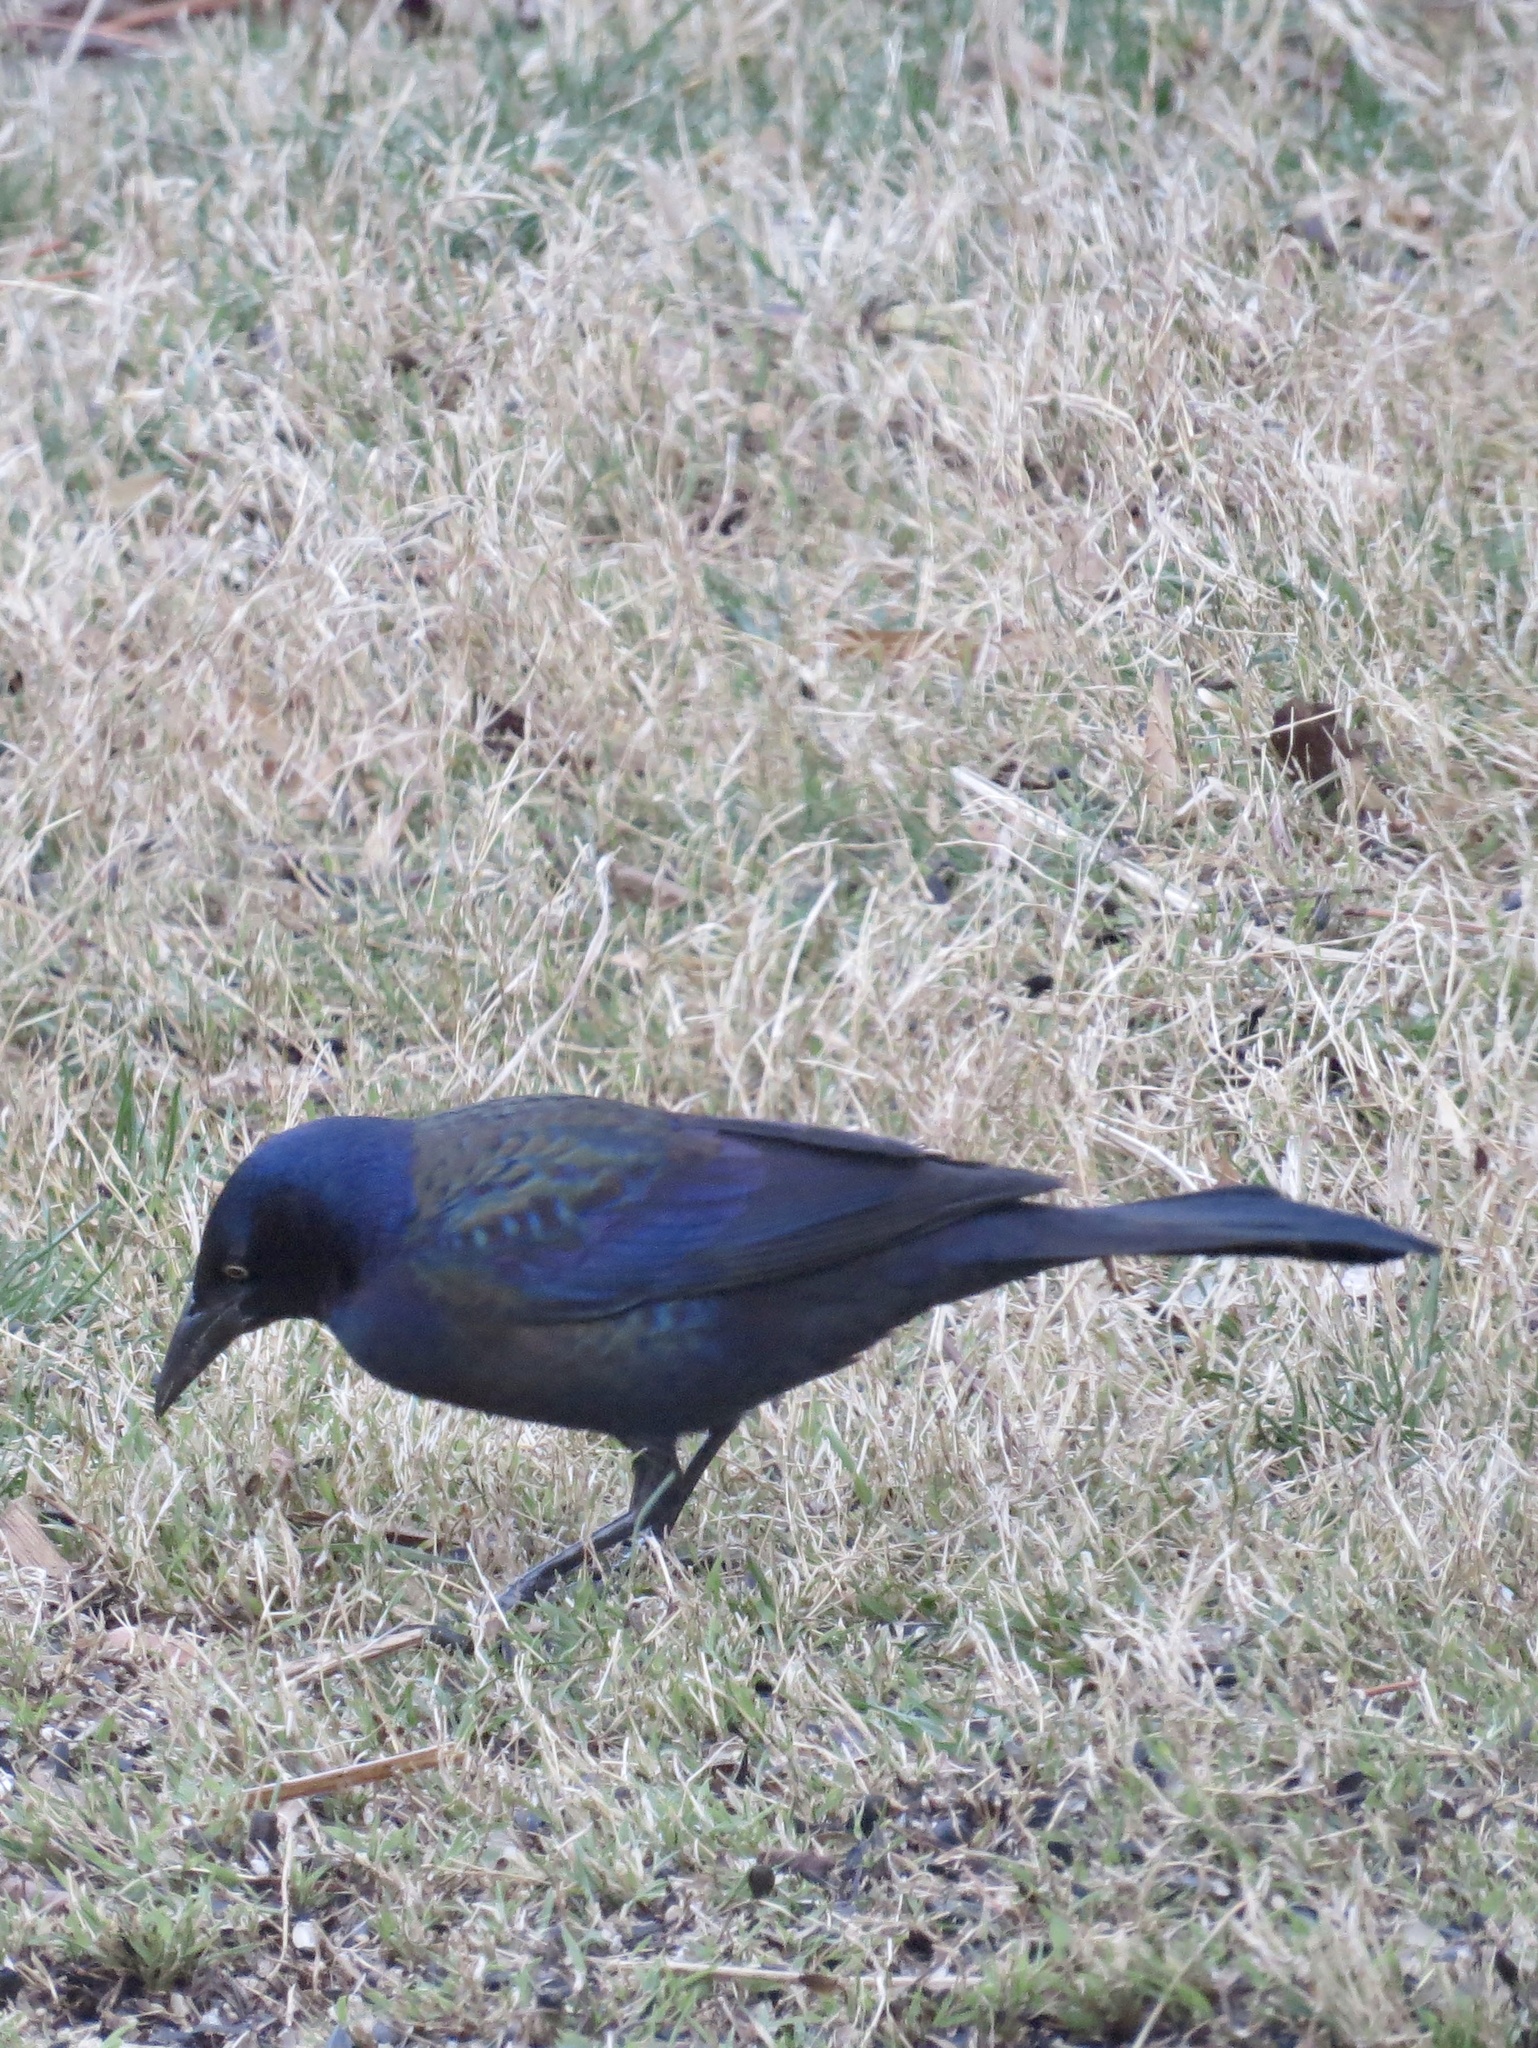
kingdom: Animalia
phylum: Chordata
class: Aves
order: Passeriformes
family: Icteridae
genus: Quiscalus
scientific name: Quiscalus quiscula
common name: Common grackle
